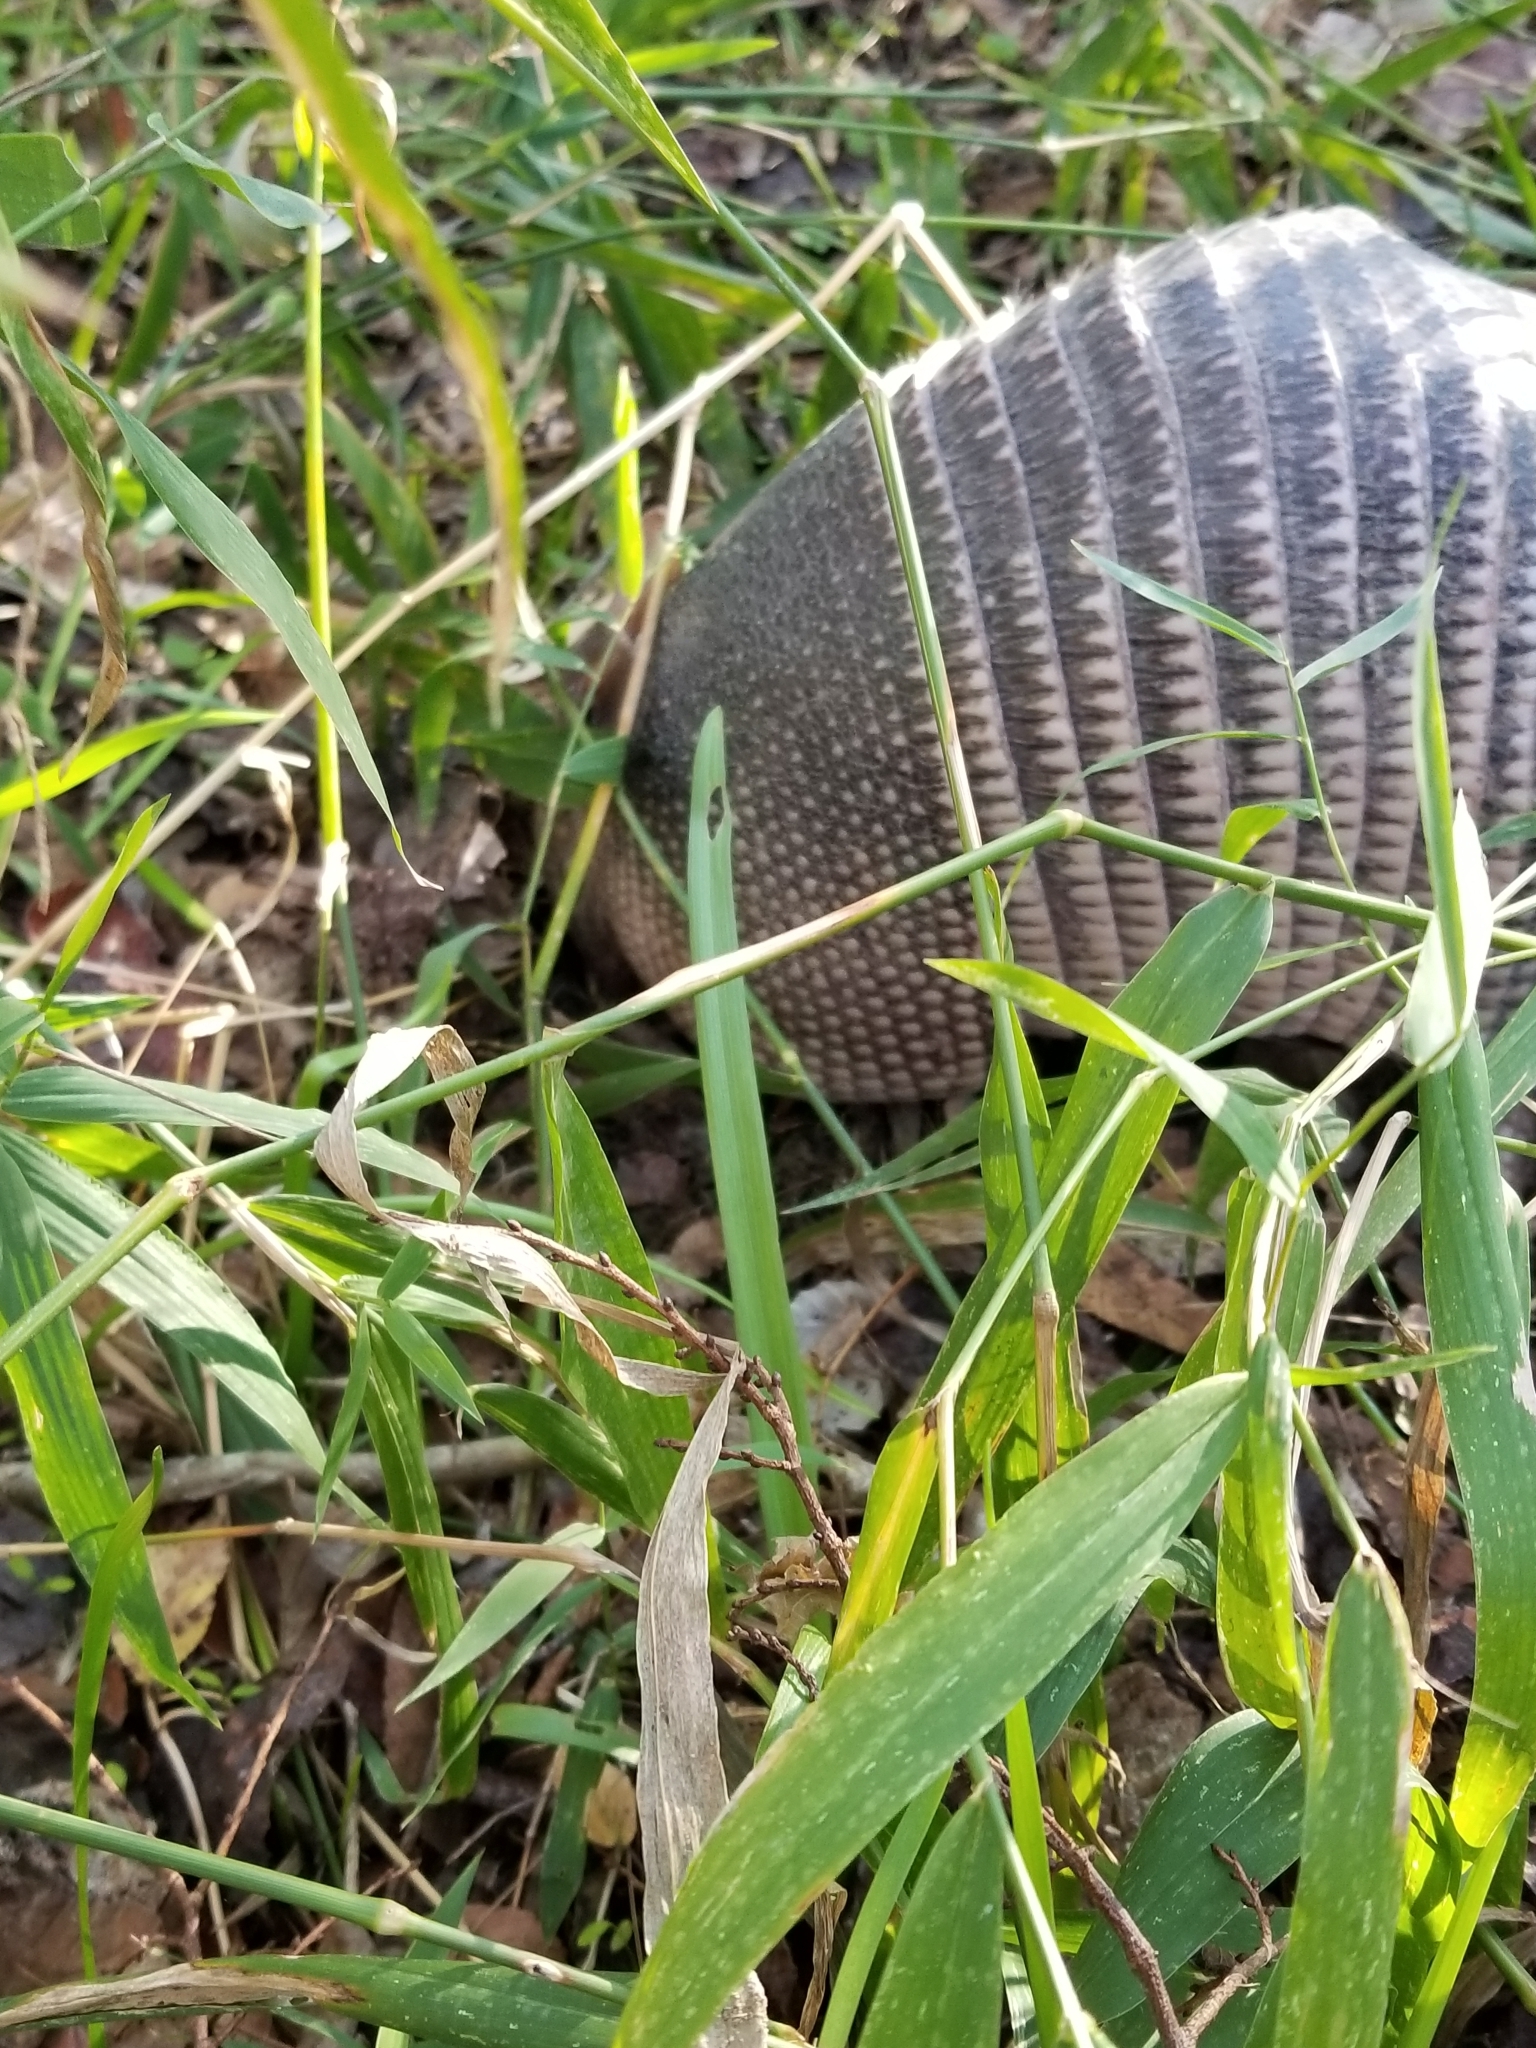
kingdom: Animalia
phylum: Chordata
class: Mammalia
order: Cingulata
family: Dasypodidae
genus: Dasypus
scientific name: Dasypus novemcinctus
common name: Nine-banded armadillo
